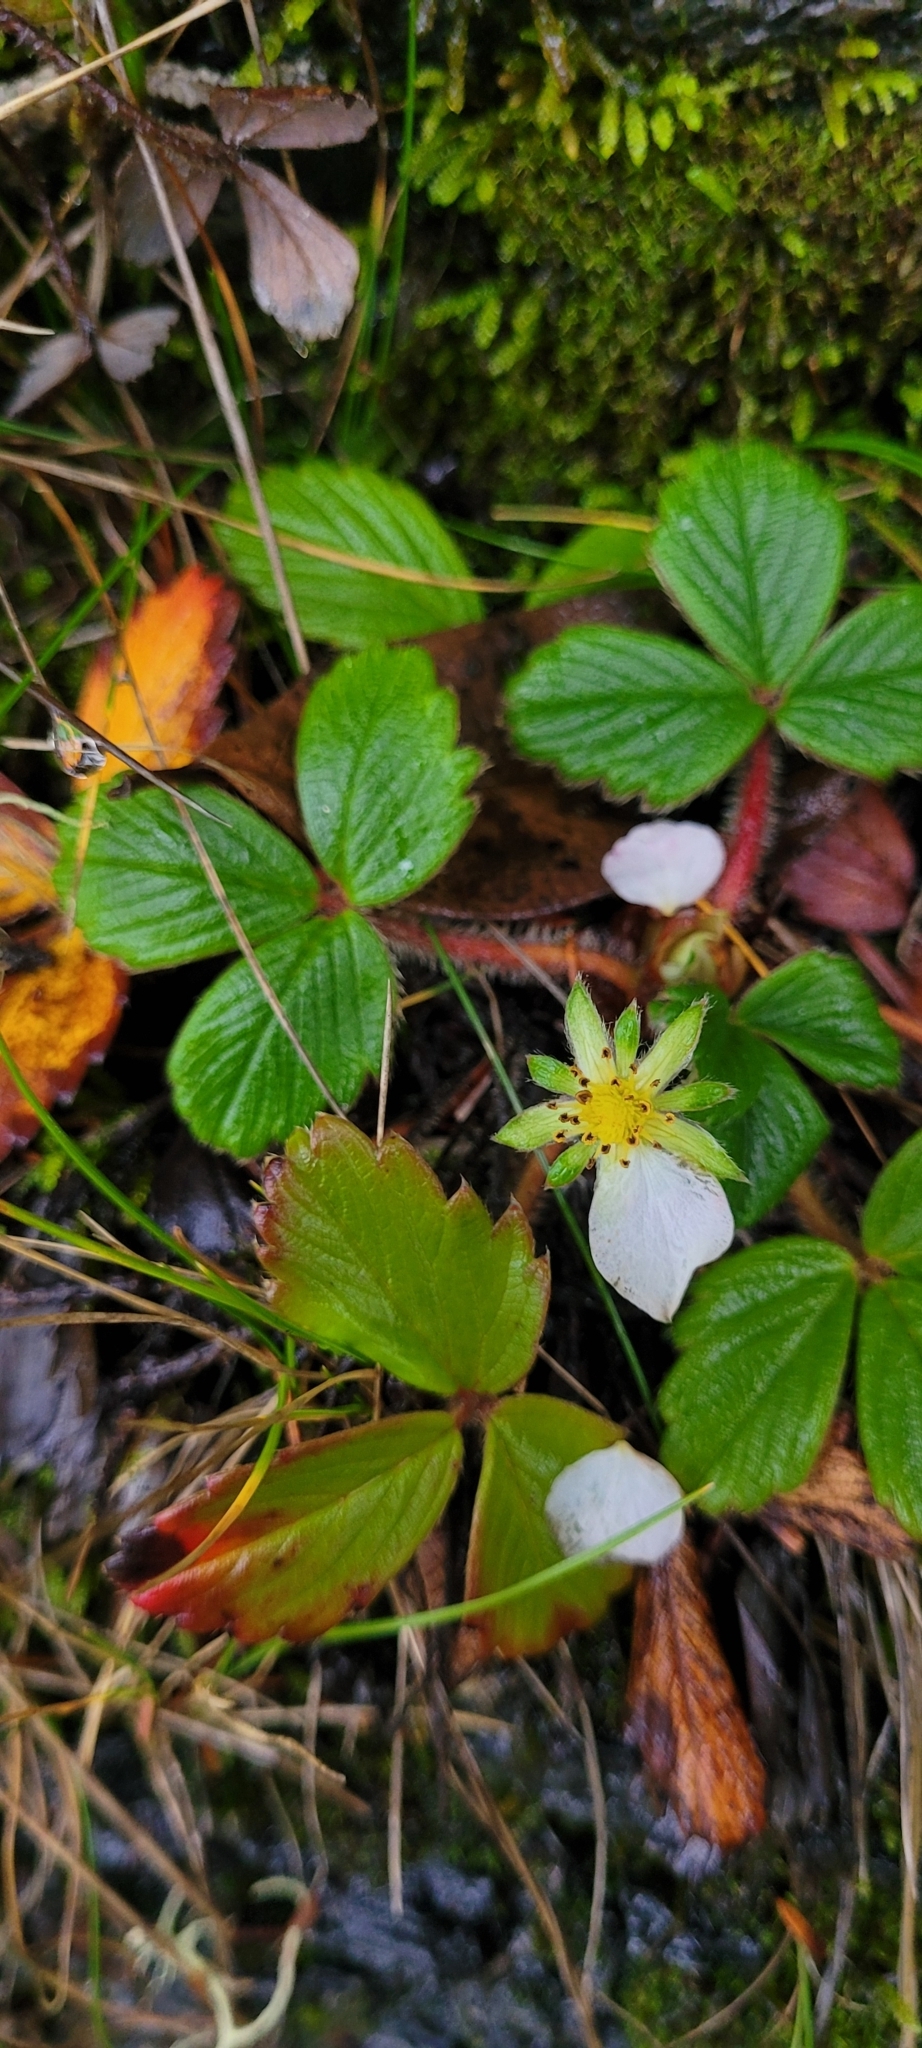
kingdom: Plantae
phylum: Tracheophyta
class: Magnoliopsida
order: Rosales
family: Rosaceae
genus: Fragaria
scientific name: Fragaria chiloensis
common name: Beach strawberry
